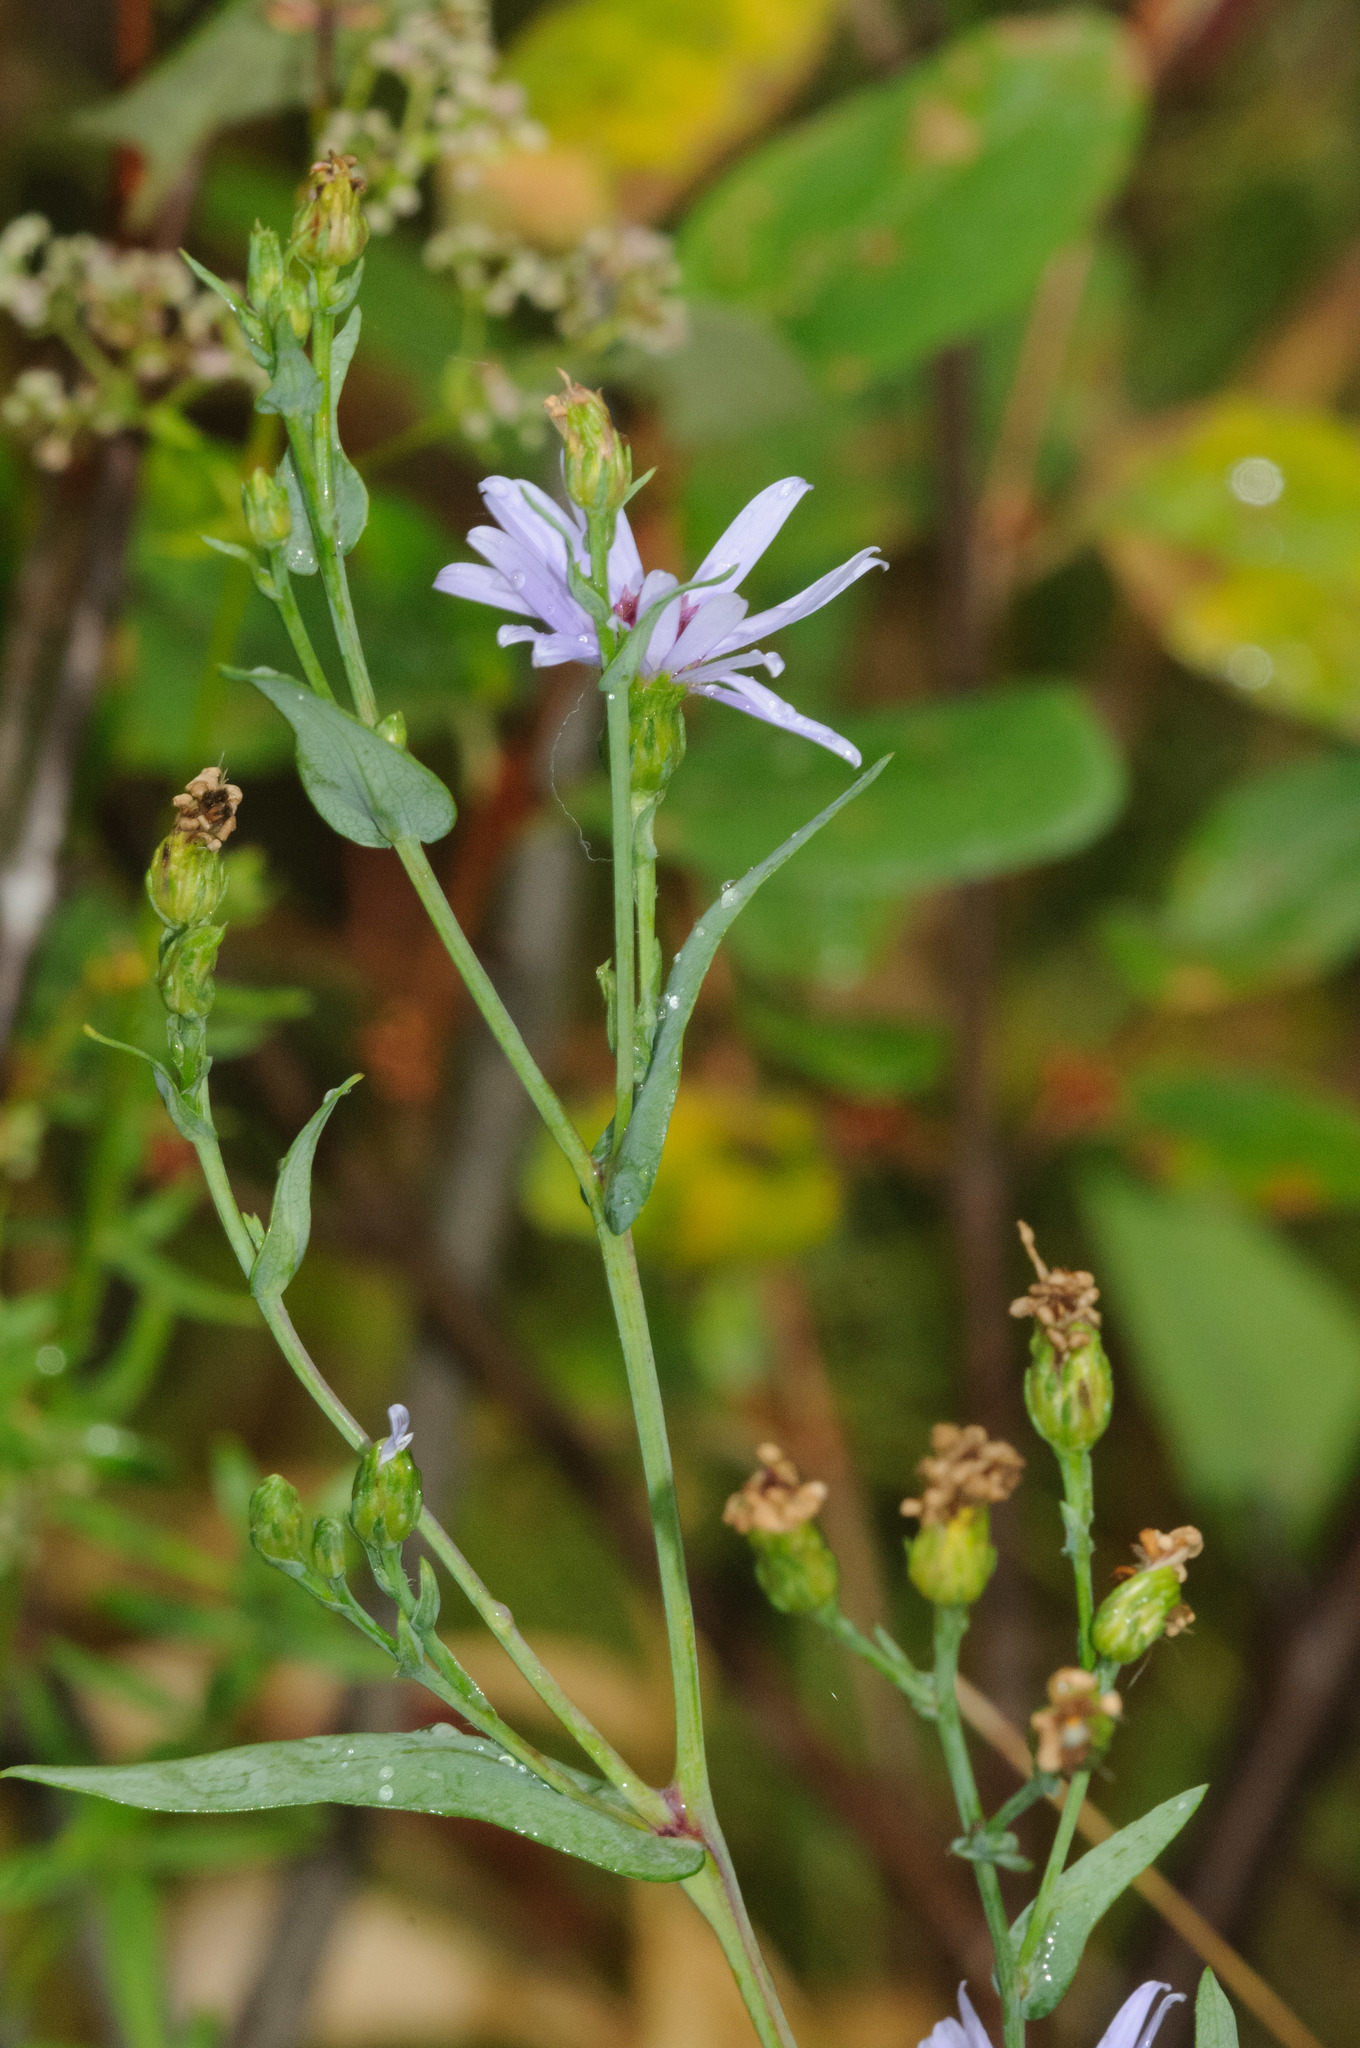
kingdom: Plantae
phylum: Tracheophyta
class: Magnoliopsida
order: Asterales
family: Asteraceae
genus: Symphyotrichum
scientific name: Symphyotrichum laeve
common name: Glaucous aster
